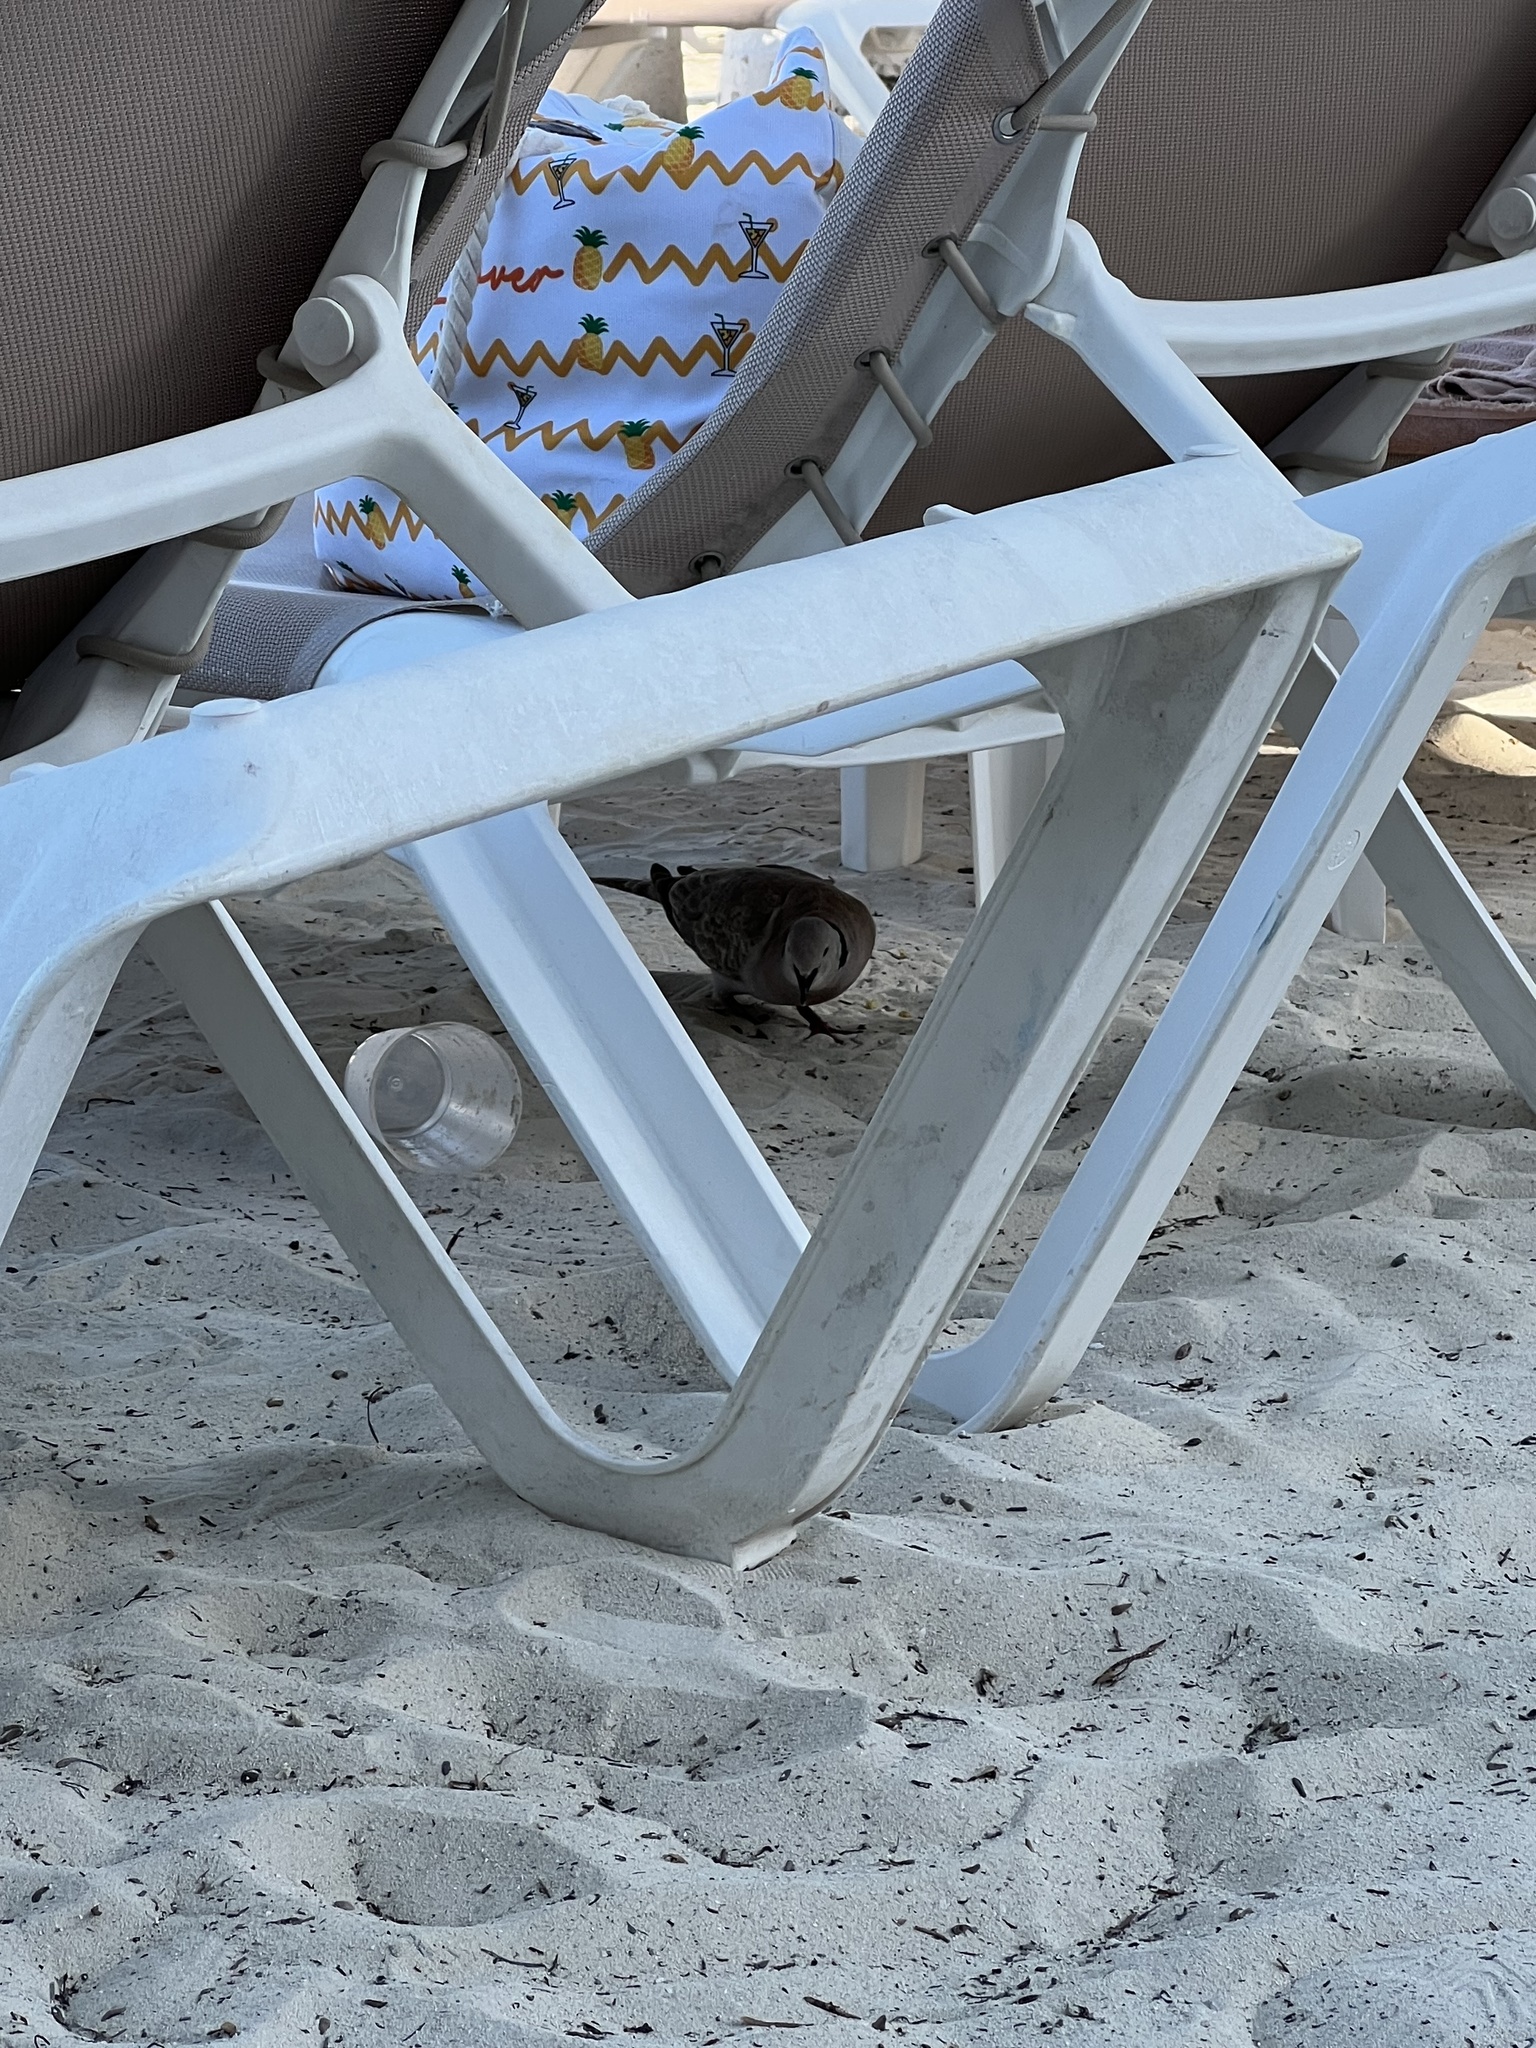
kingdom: Animalia
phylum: Chordata
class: Aves
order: Columbiformes
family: Columbidae
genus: Streptopelia
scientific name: Streptopelia decaocto
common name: Eurasian collared dove
